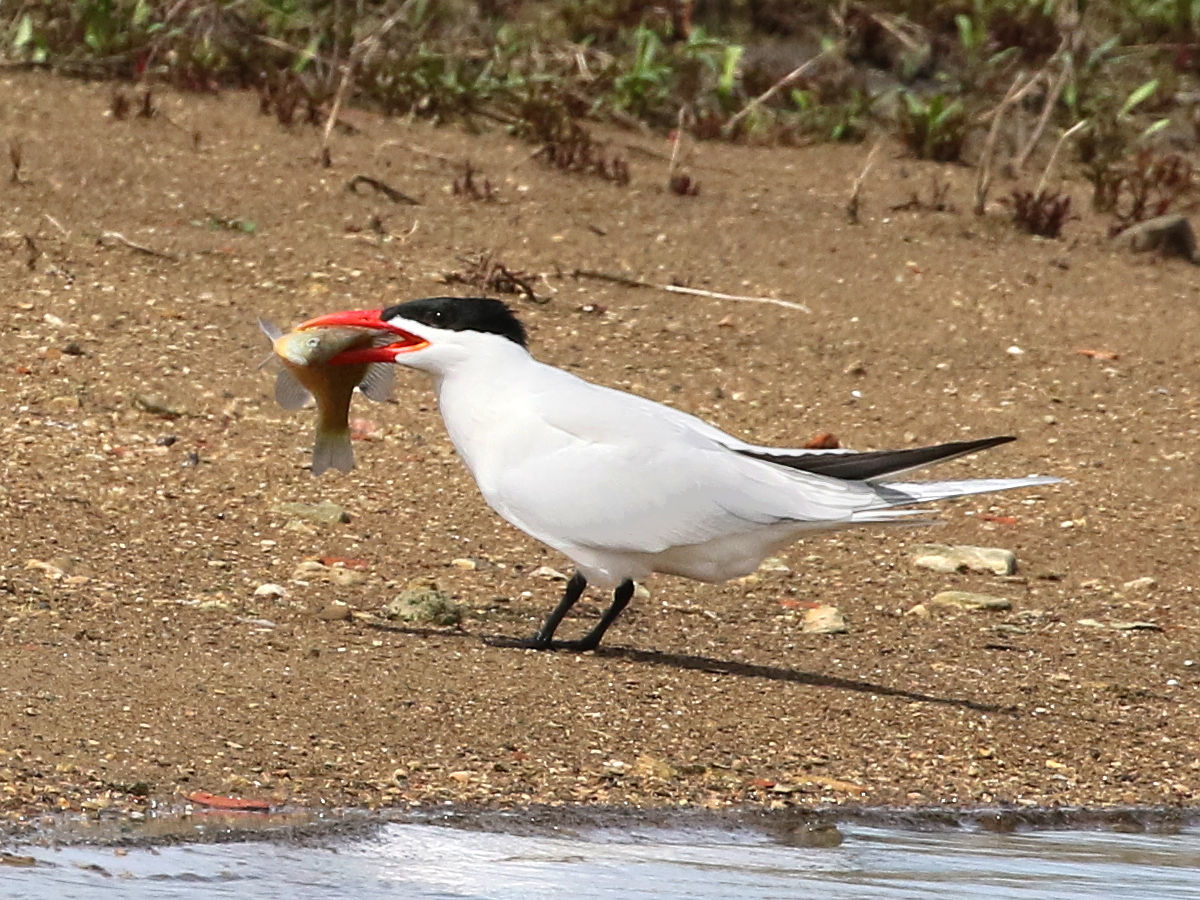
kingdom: Animalia
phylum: Chordata
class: Aves
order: Charadriiformes
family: Laridae
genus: Hydroprogne
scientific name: Hydroprogne caspia
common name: Caspian tern
